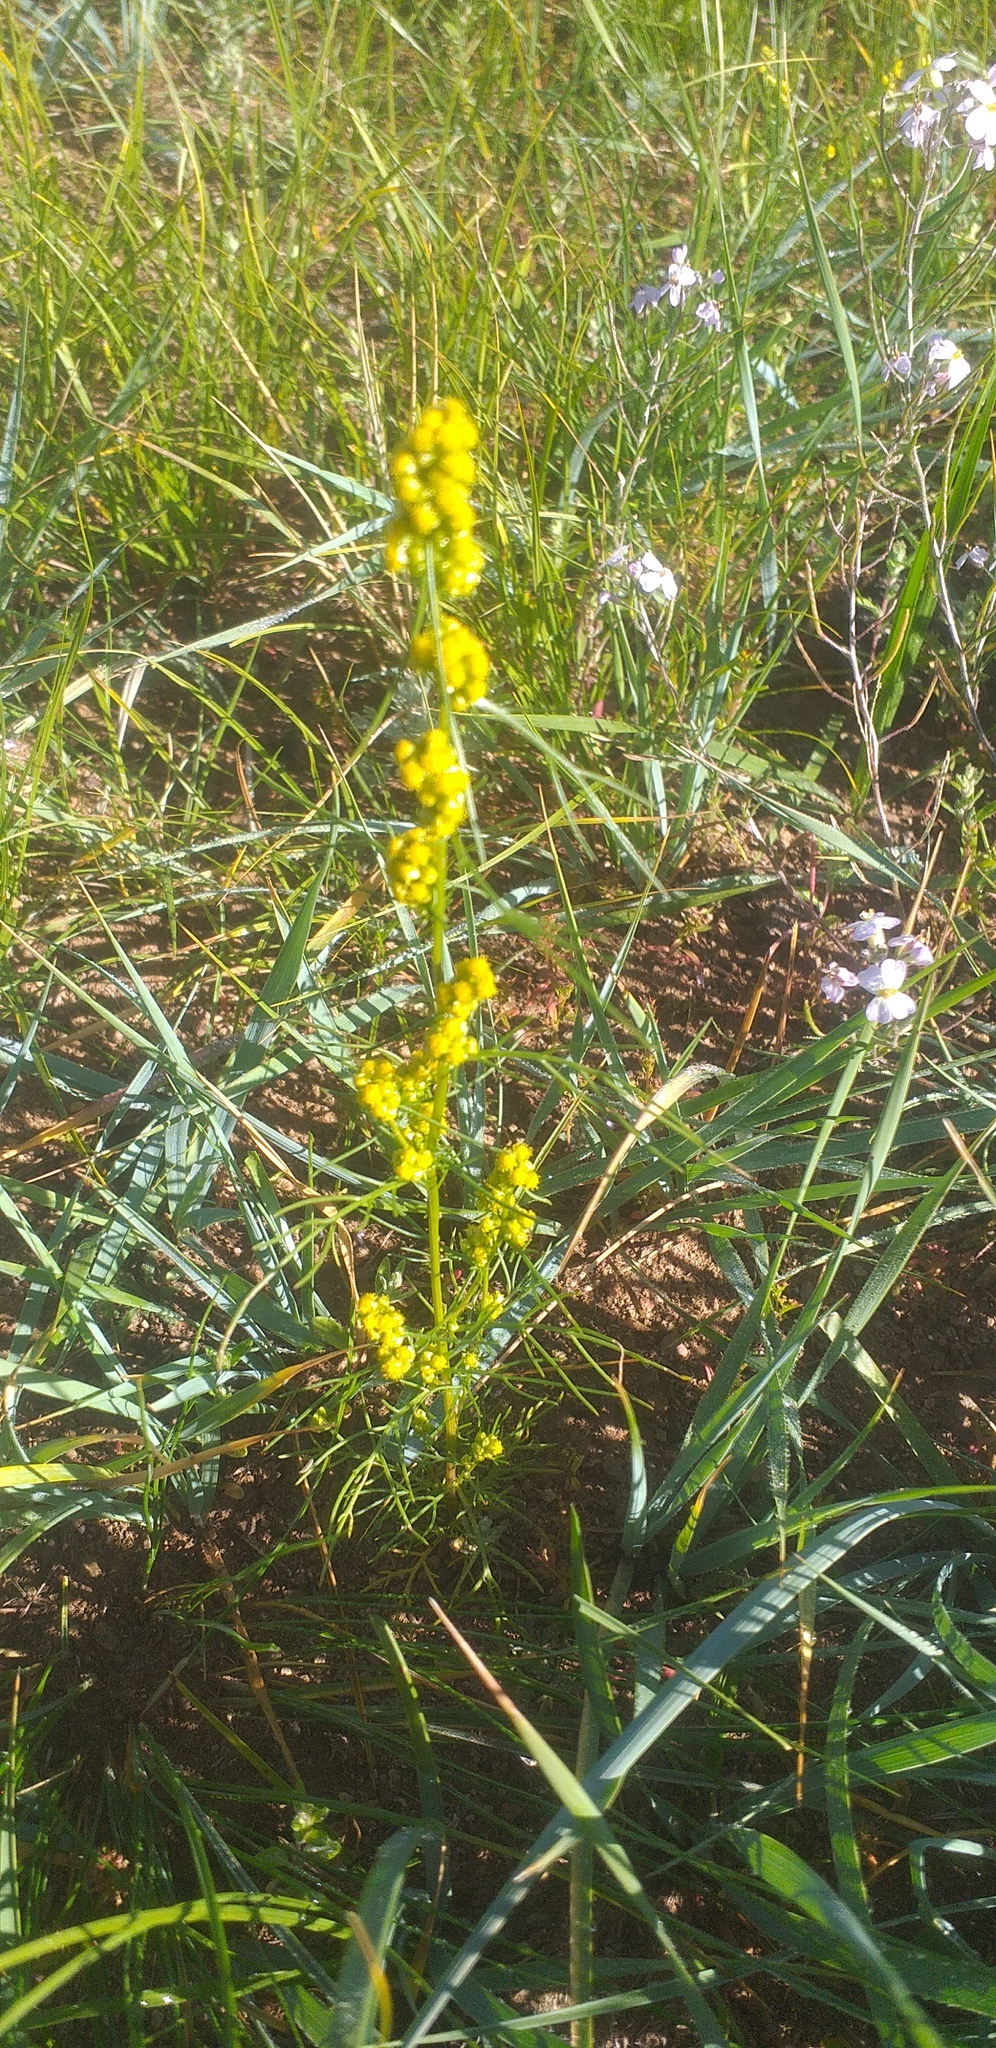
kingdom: Plantae
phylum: Tracheophyta
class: Magnoliopsida
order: Asterales
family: Asteraceae
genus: Artemisia
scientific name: Artemisia palustris
